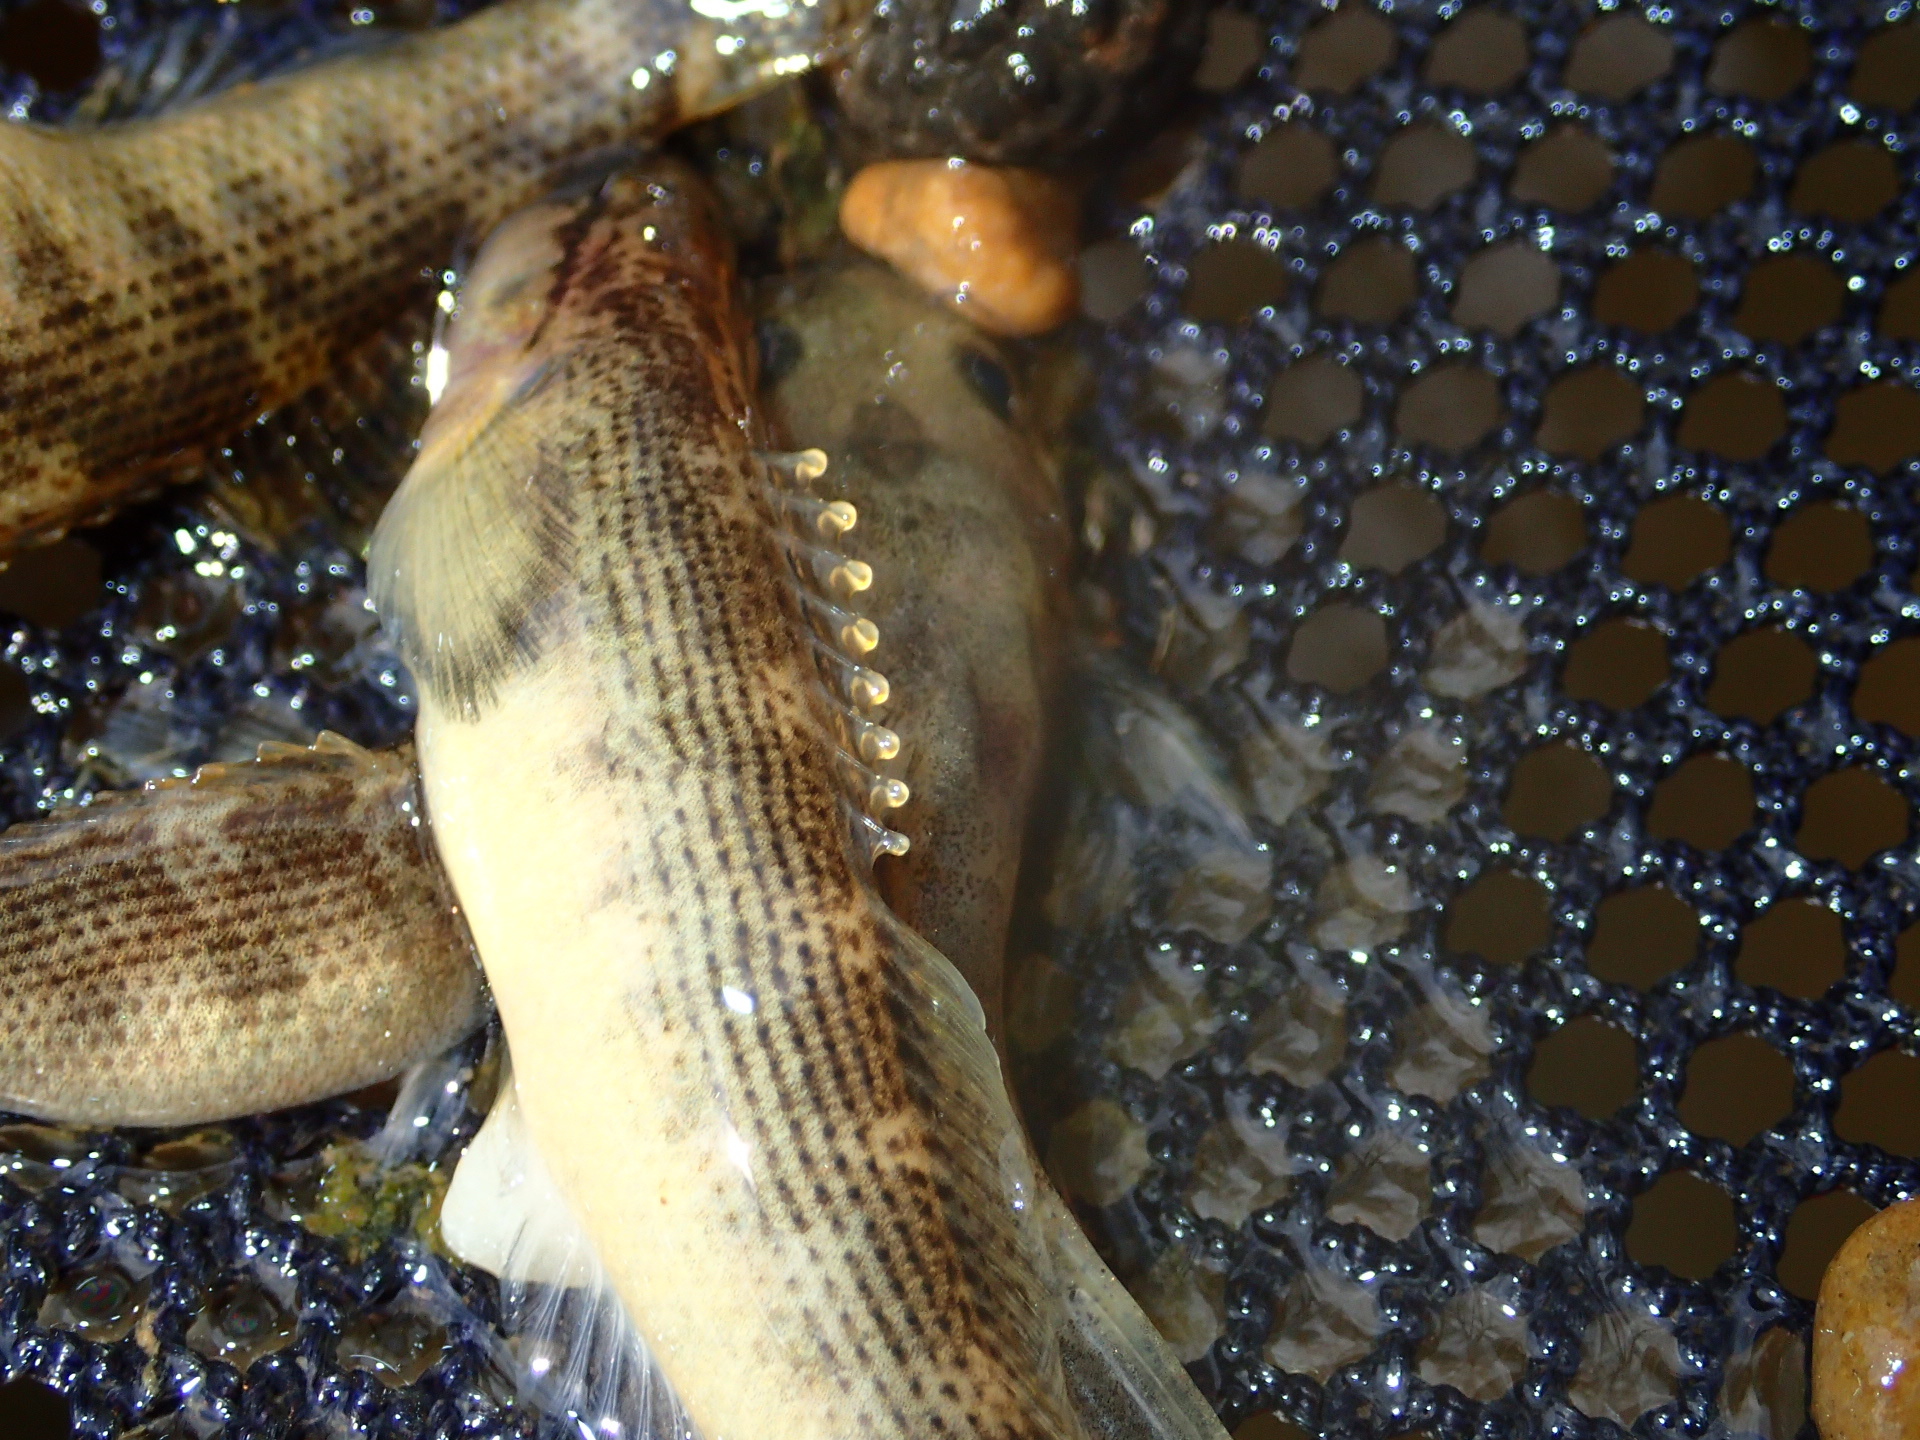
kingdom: Animalia
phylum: Chordata
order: Perciformes
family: Percidae
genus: Etheostoma
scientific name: Etheostoma flabellare
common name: Fantail darter
